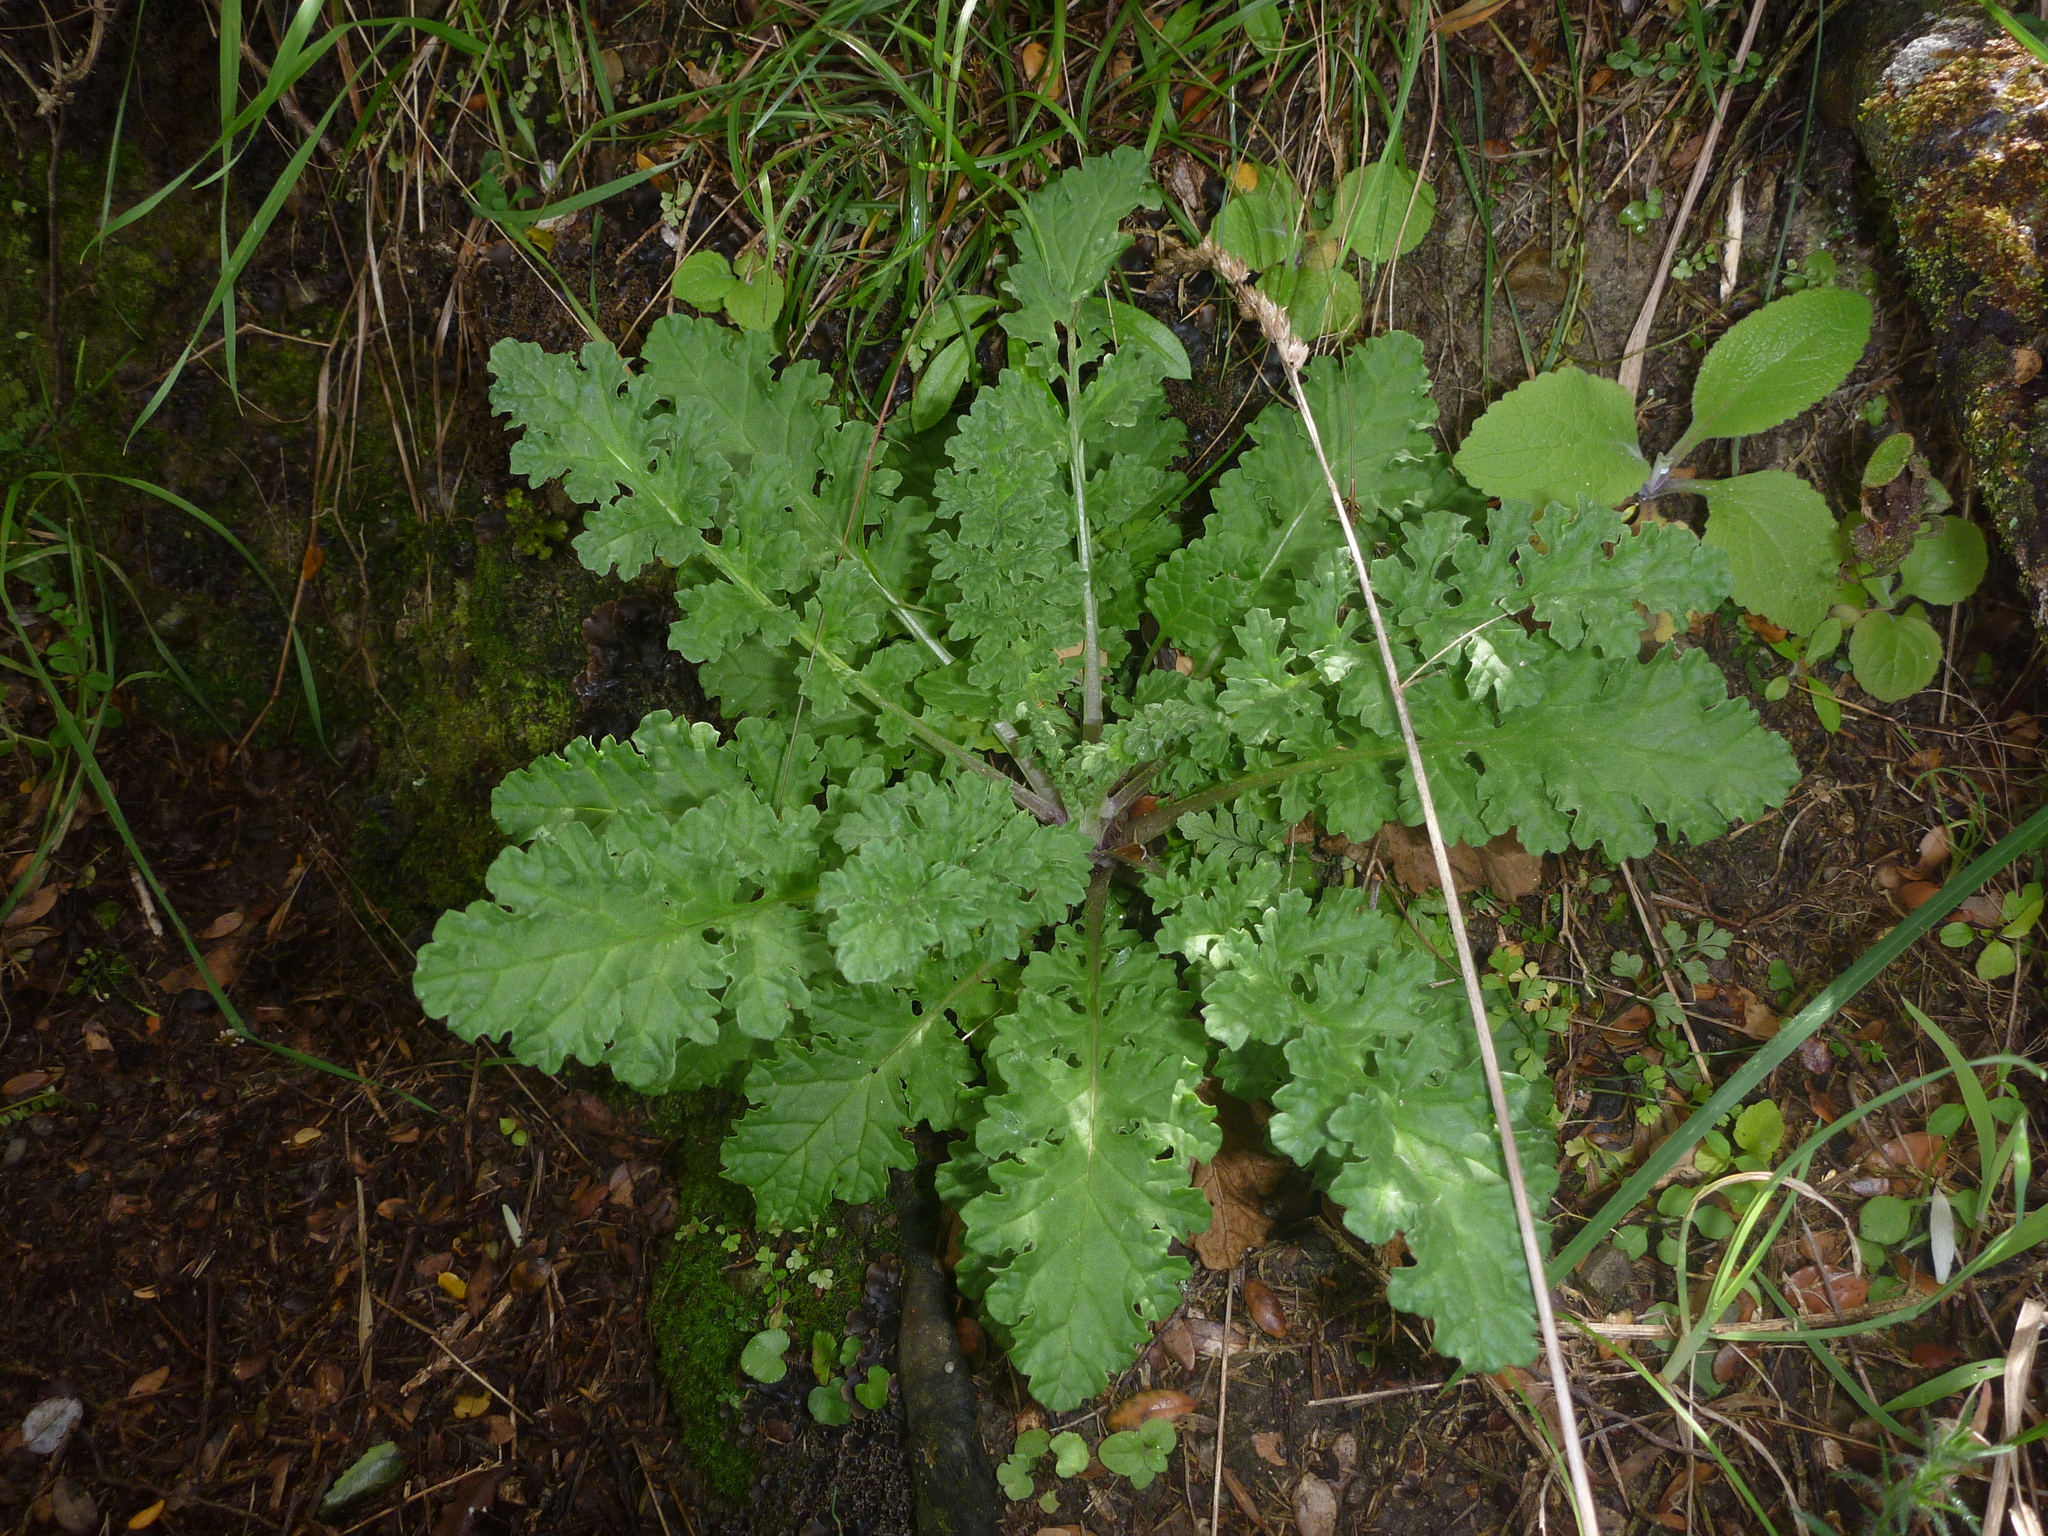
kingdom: Plantae
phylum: Tracheophyta
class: Magnoliopsida
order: Asterales
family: Asteraceae
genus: Jacobaea
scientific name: Jacobaea vulgaris
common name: Stinking willie
